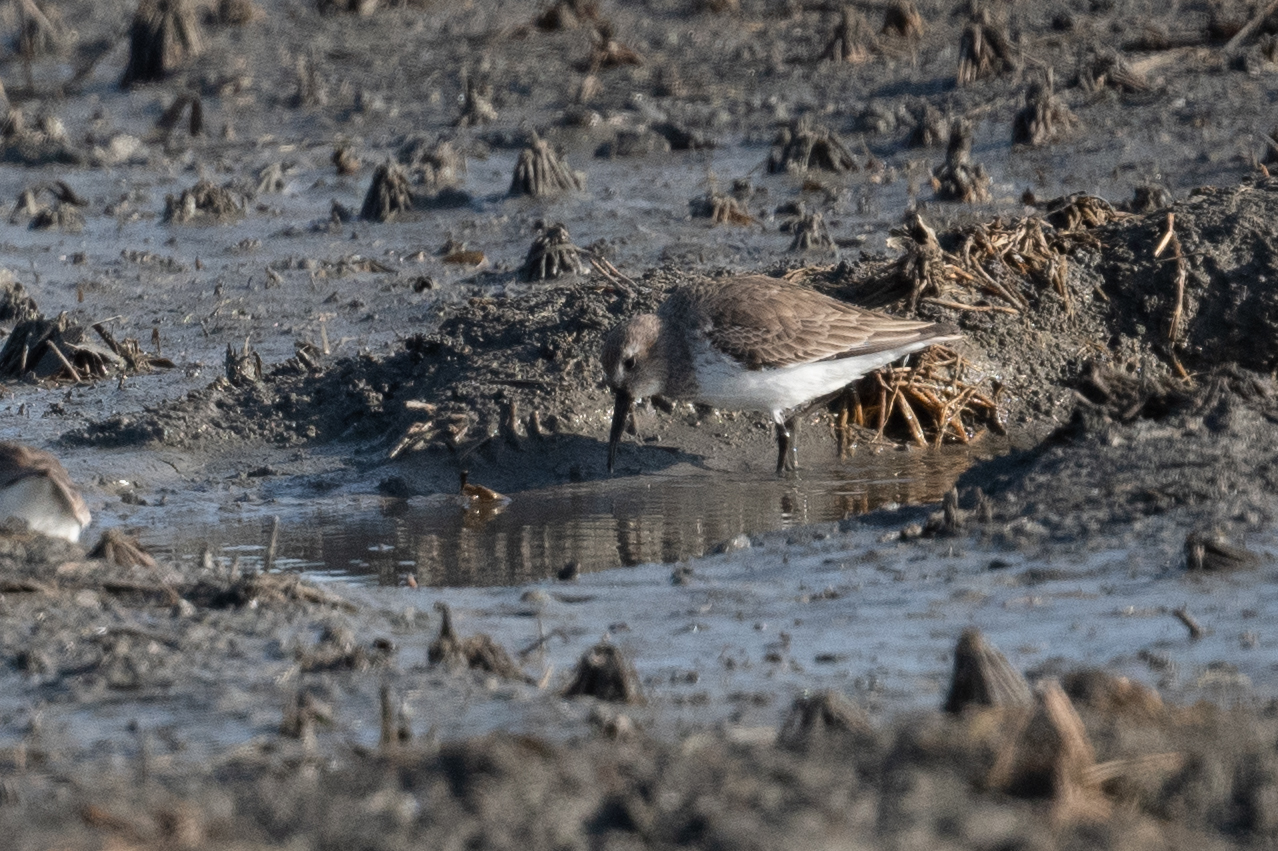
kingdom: Animalia
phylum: Chordata
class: Aves
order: Charadriiformes
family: Scolopacidae
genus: Calidris
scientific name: Calidris alpina
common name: Dunlin
